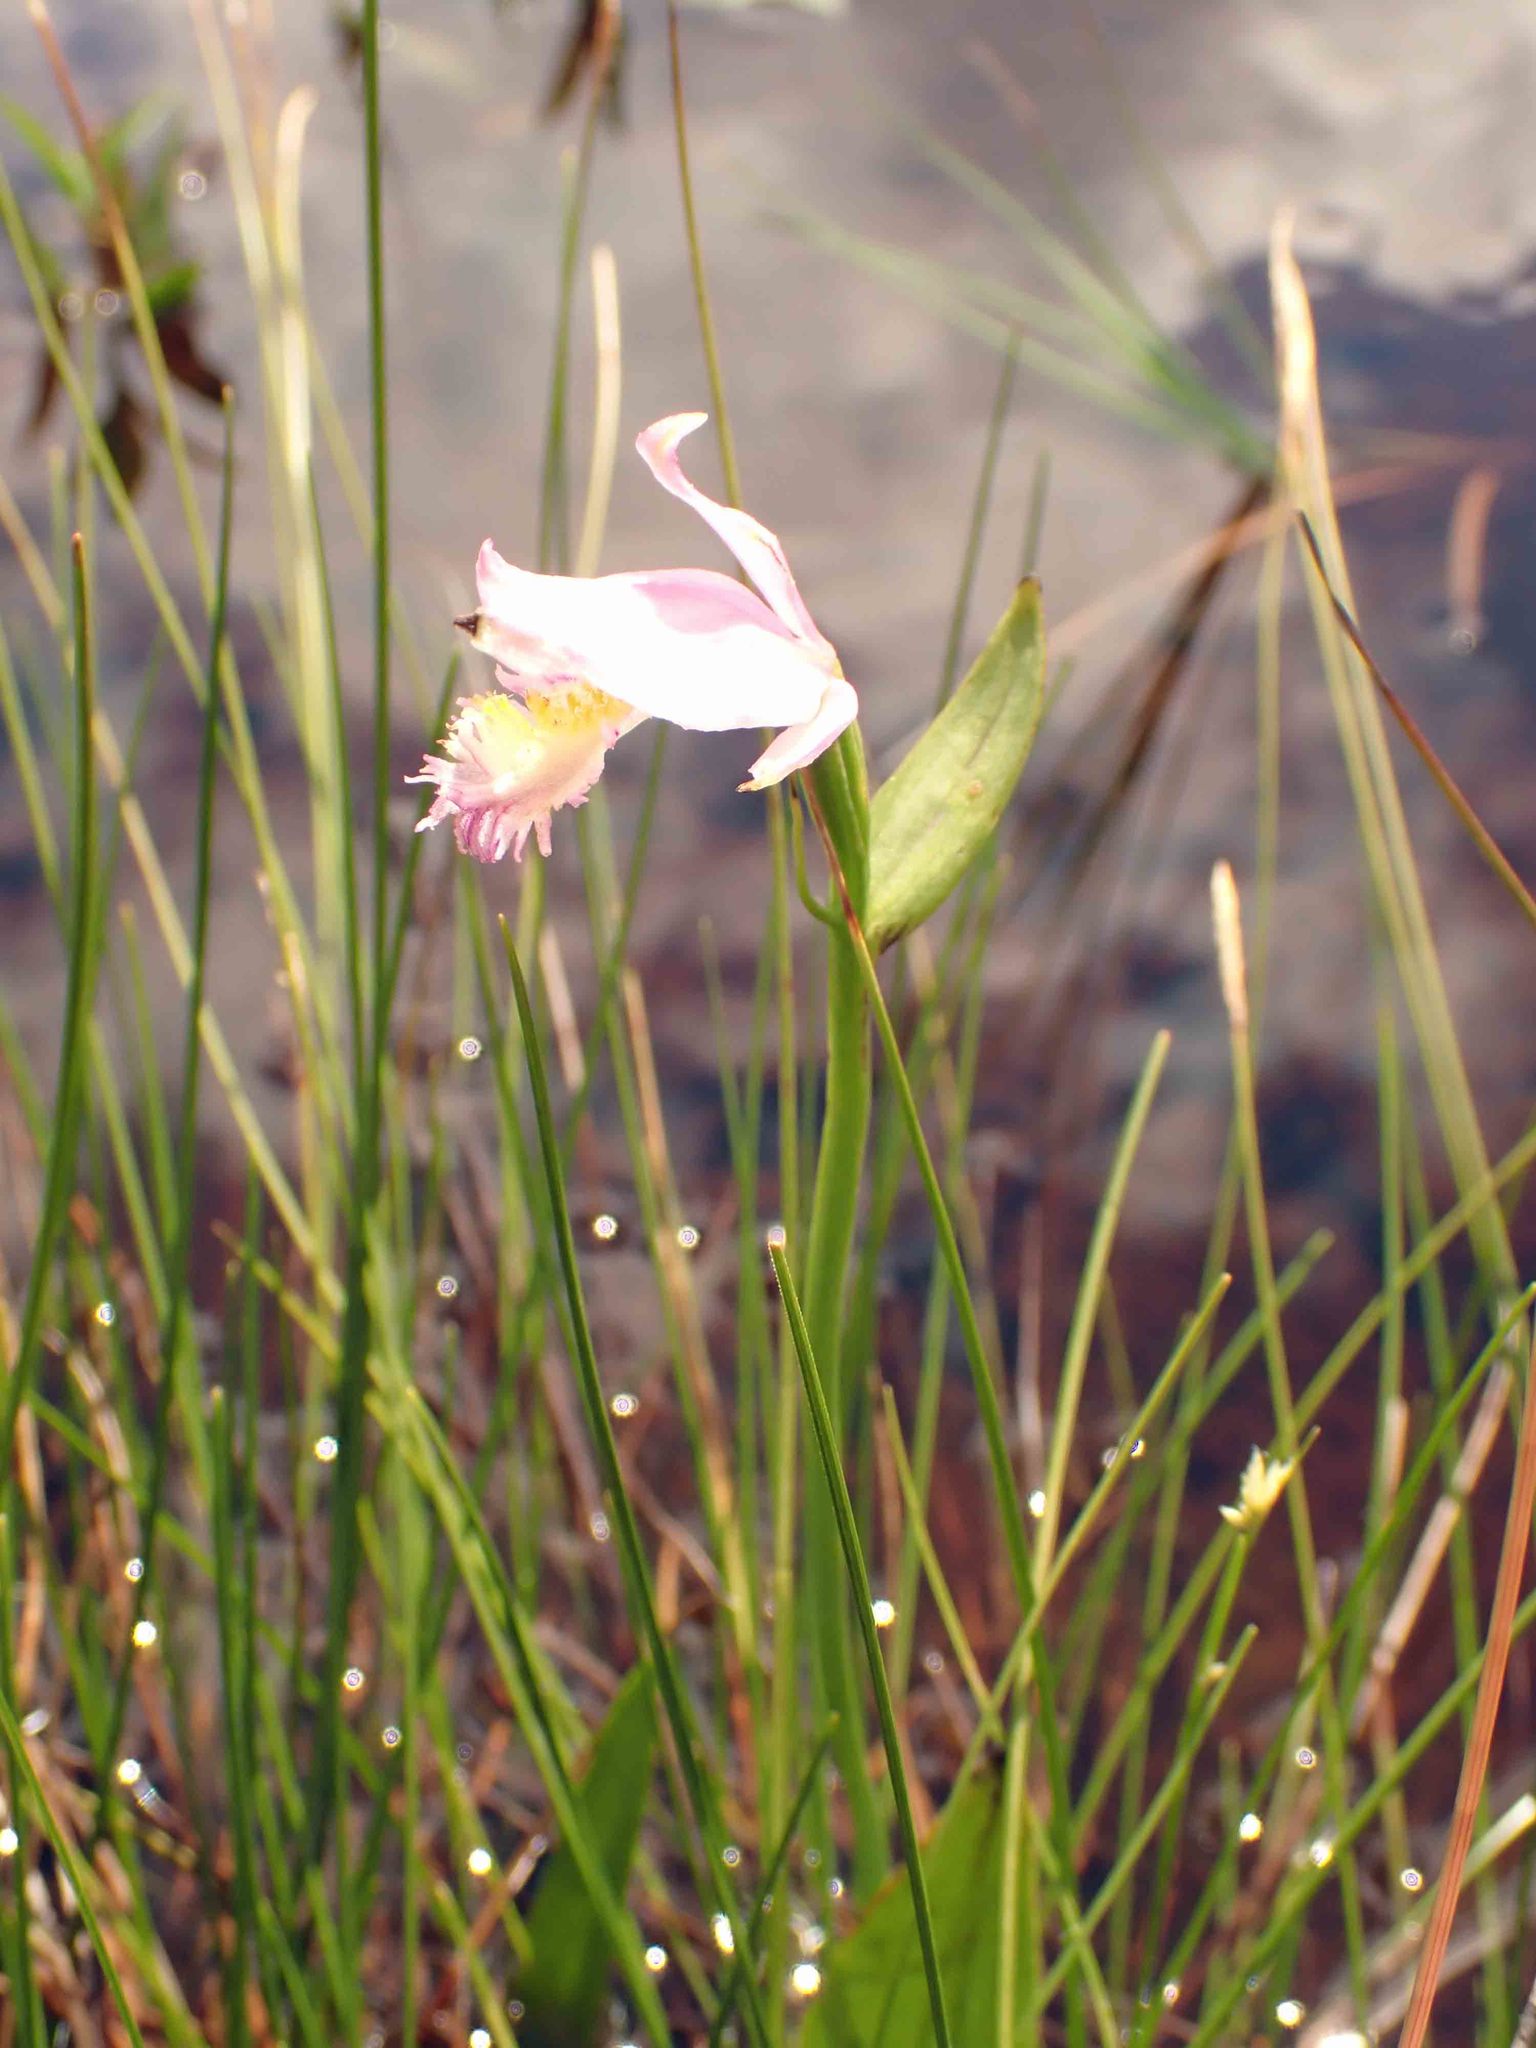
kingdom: Plantae
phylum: Tracheophyta
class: Liliopsida
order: Asparagales
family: Orchidaceae
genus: Pogonia
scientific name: Pogonia ophioglossoides
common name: Rose pogonia
